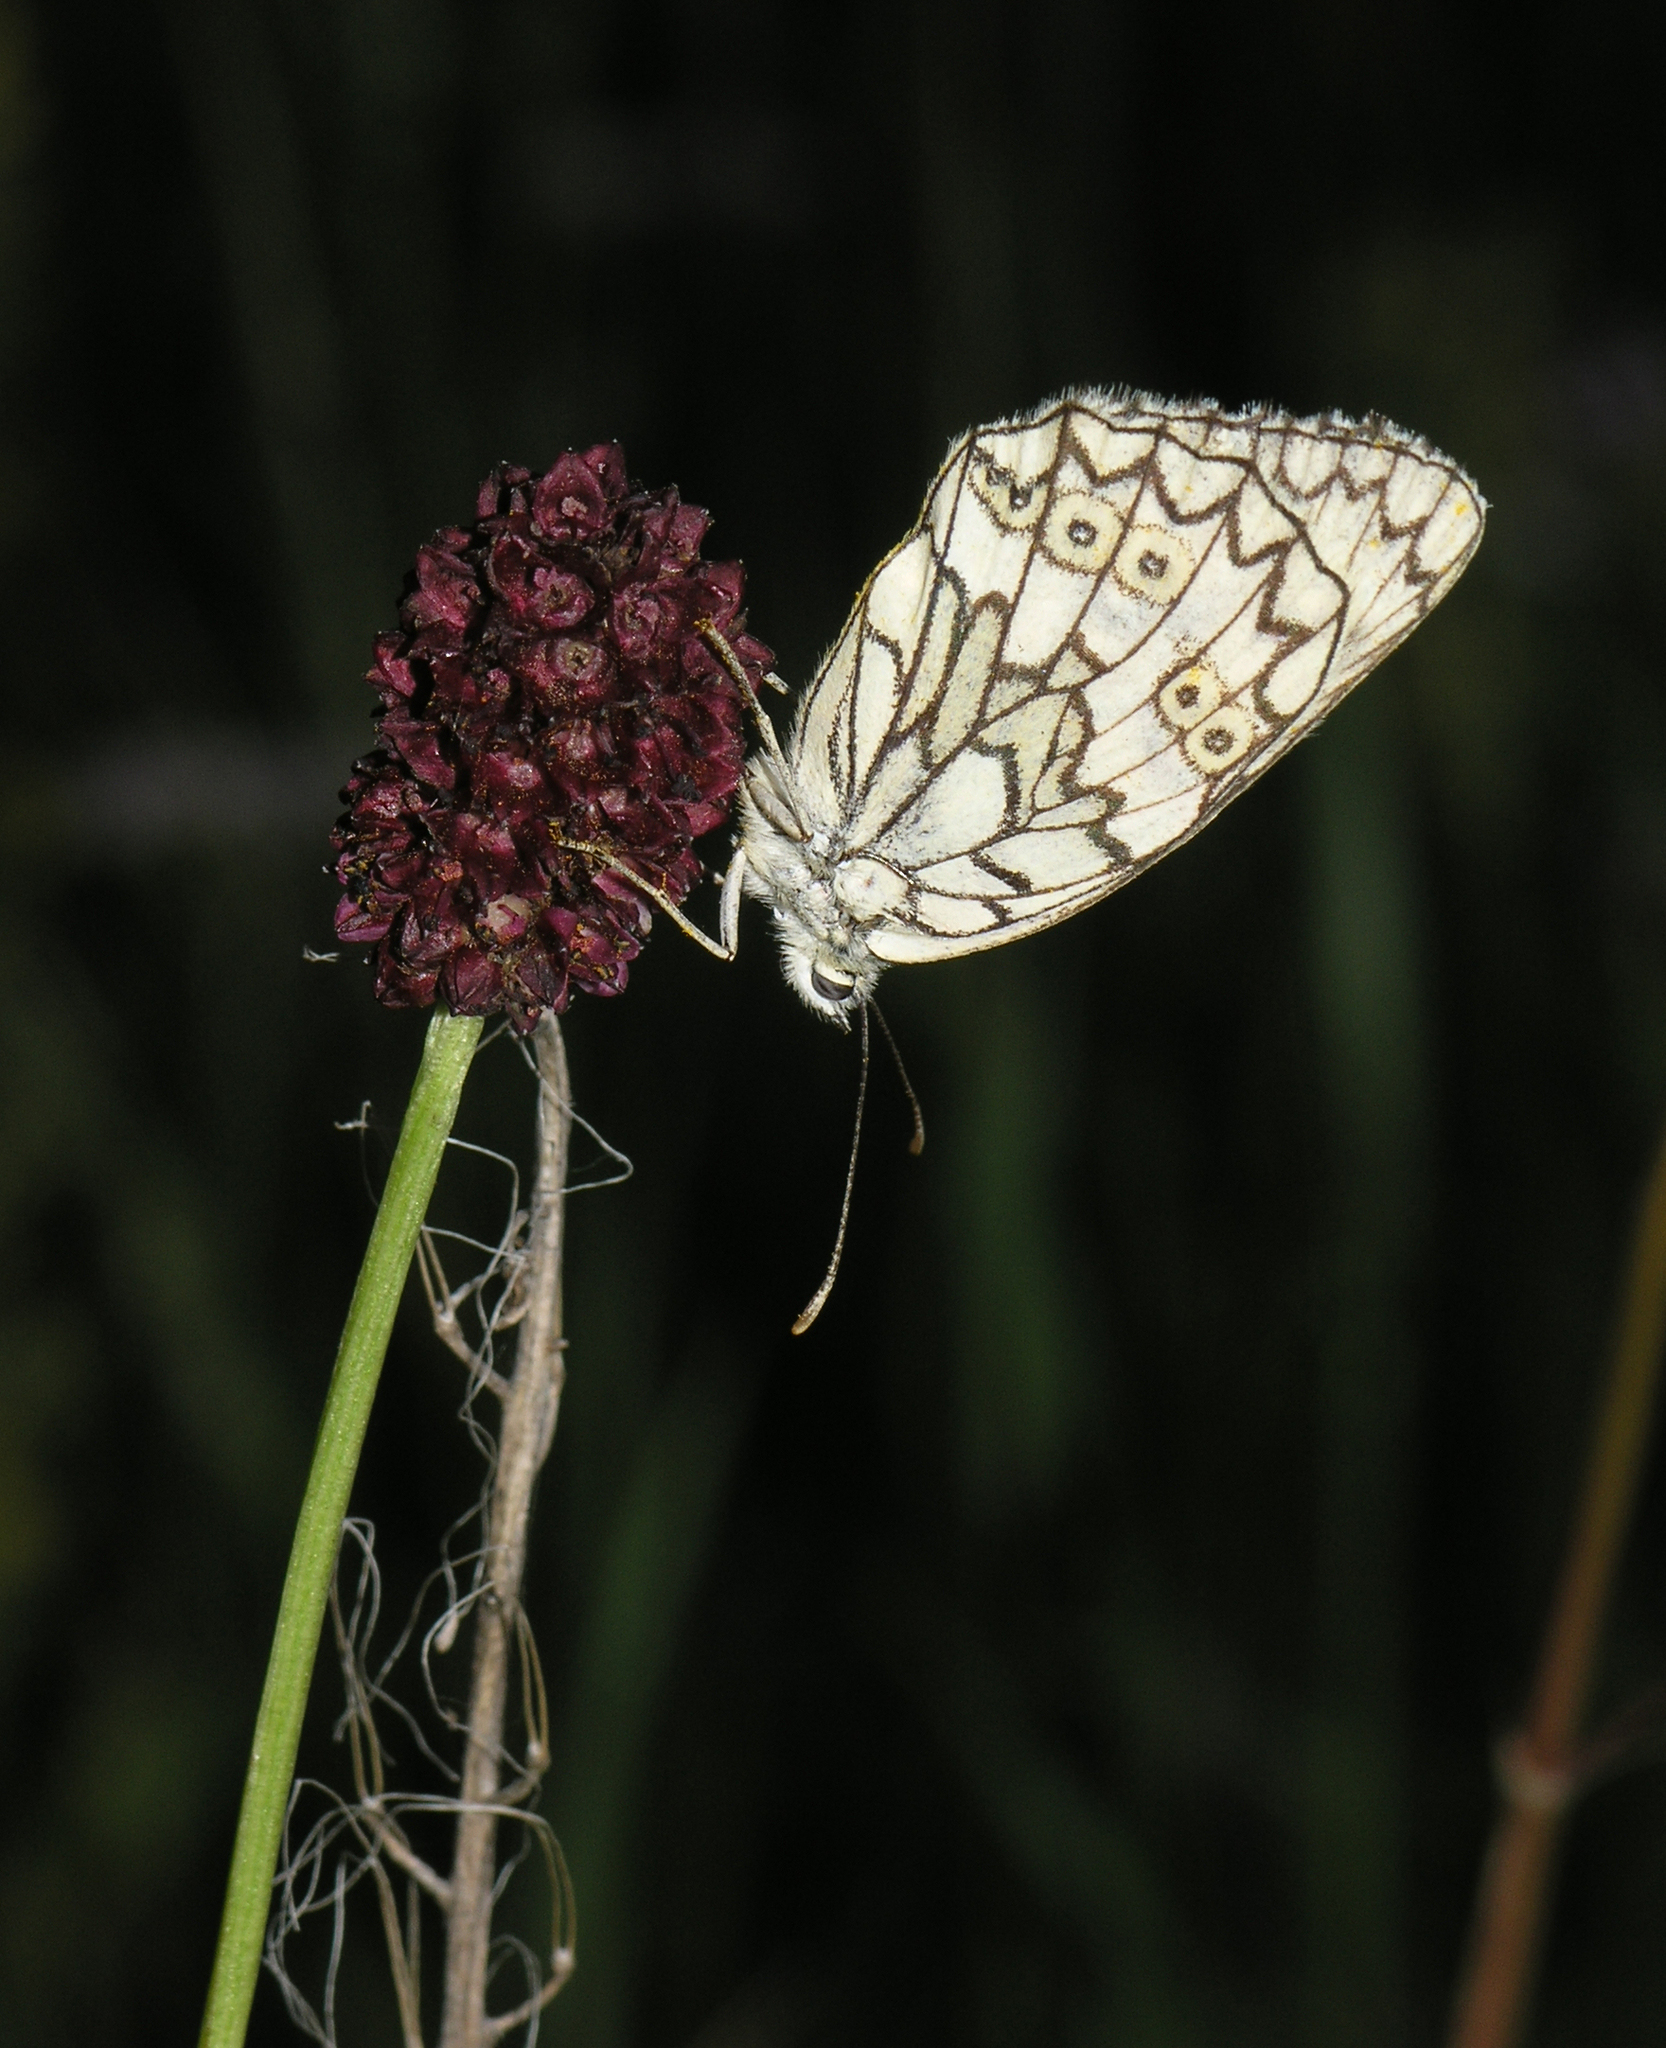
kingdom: Plantae
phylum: Tracheophyta
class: Magnoliopsida
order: Rosales
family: Rosaceae
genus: Sanguisorba
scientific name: Sanguisorba officinalis
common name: Great burnet
